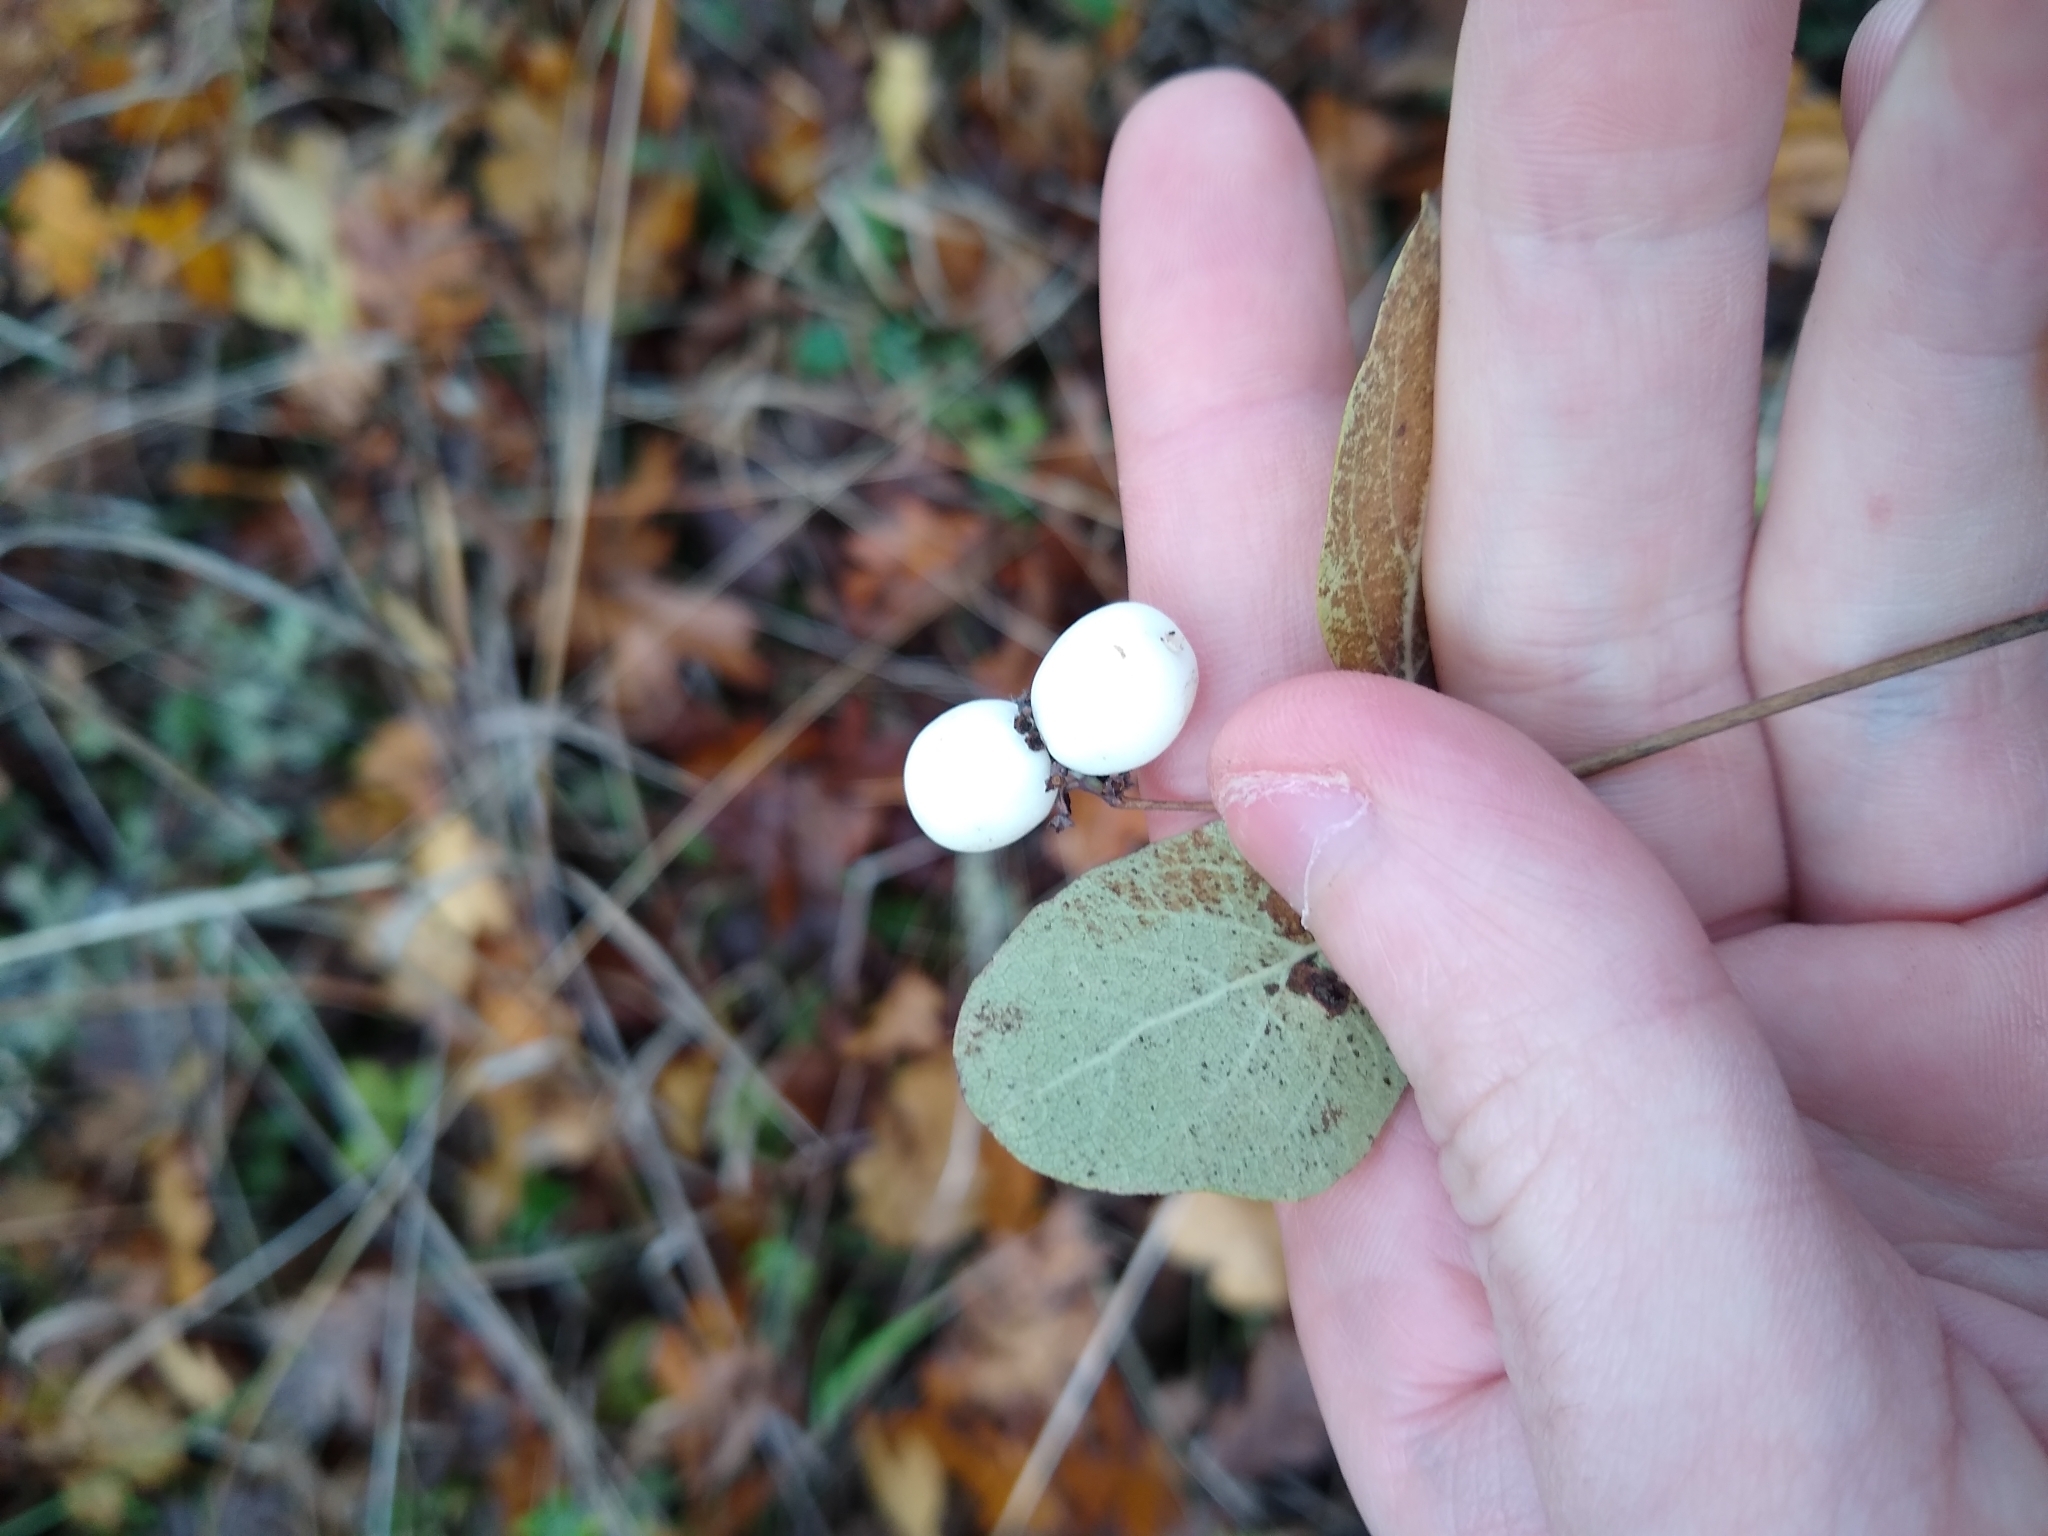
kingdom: Plantae
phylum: Tracheophyta
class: Magnoliopsida
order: Dipsacales
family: Caprifoliaceae
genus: Symphoricarpos
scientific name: Symphoricarpos albus
